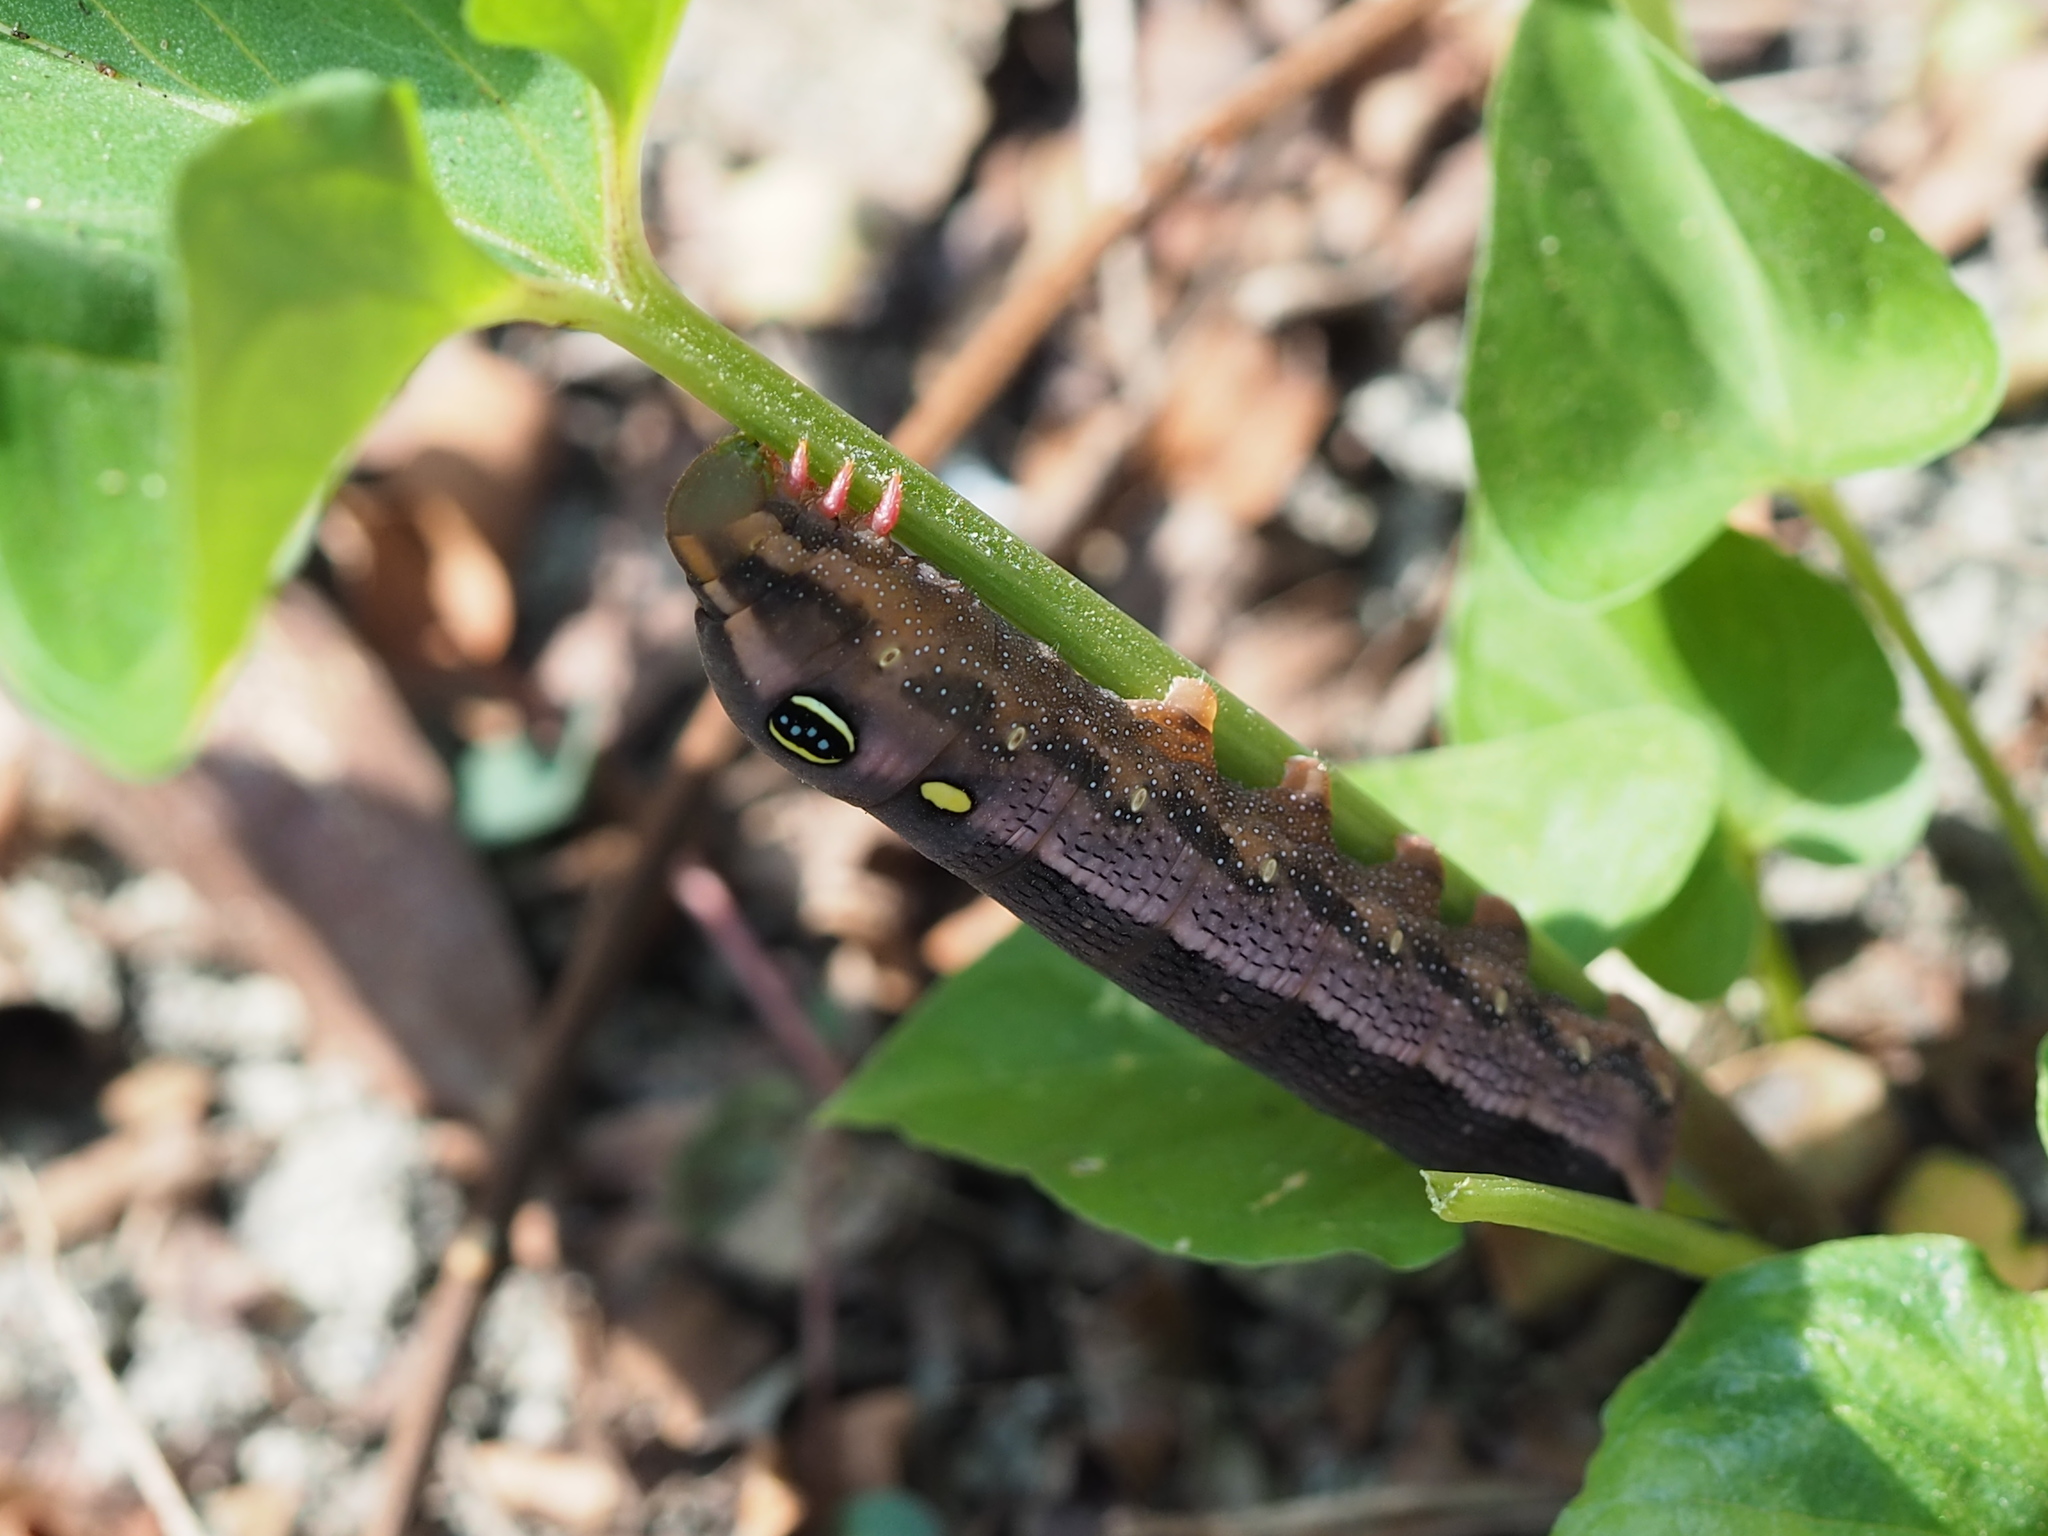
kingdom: Animalia
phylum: Arthropoda
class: Insecta
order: Lepidoptera
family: Sphingidae
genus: Hippotion
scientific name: Hippotion celerio
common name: Silver-striped hawk-moth
